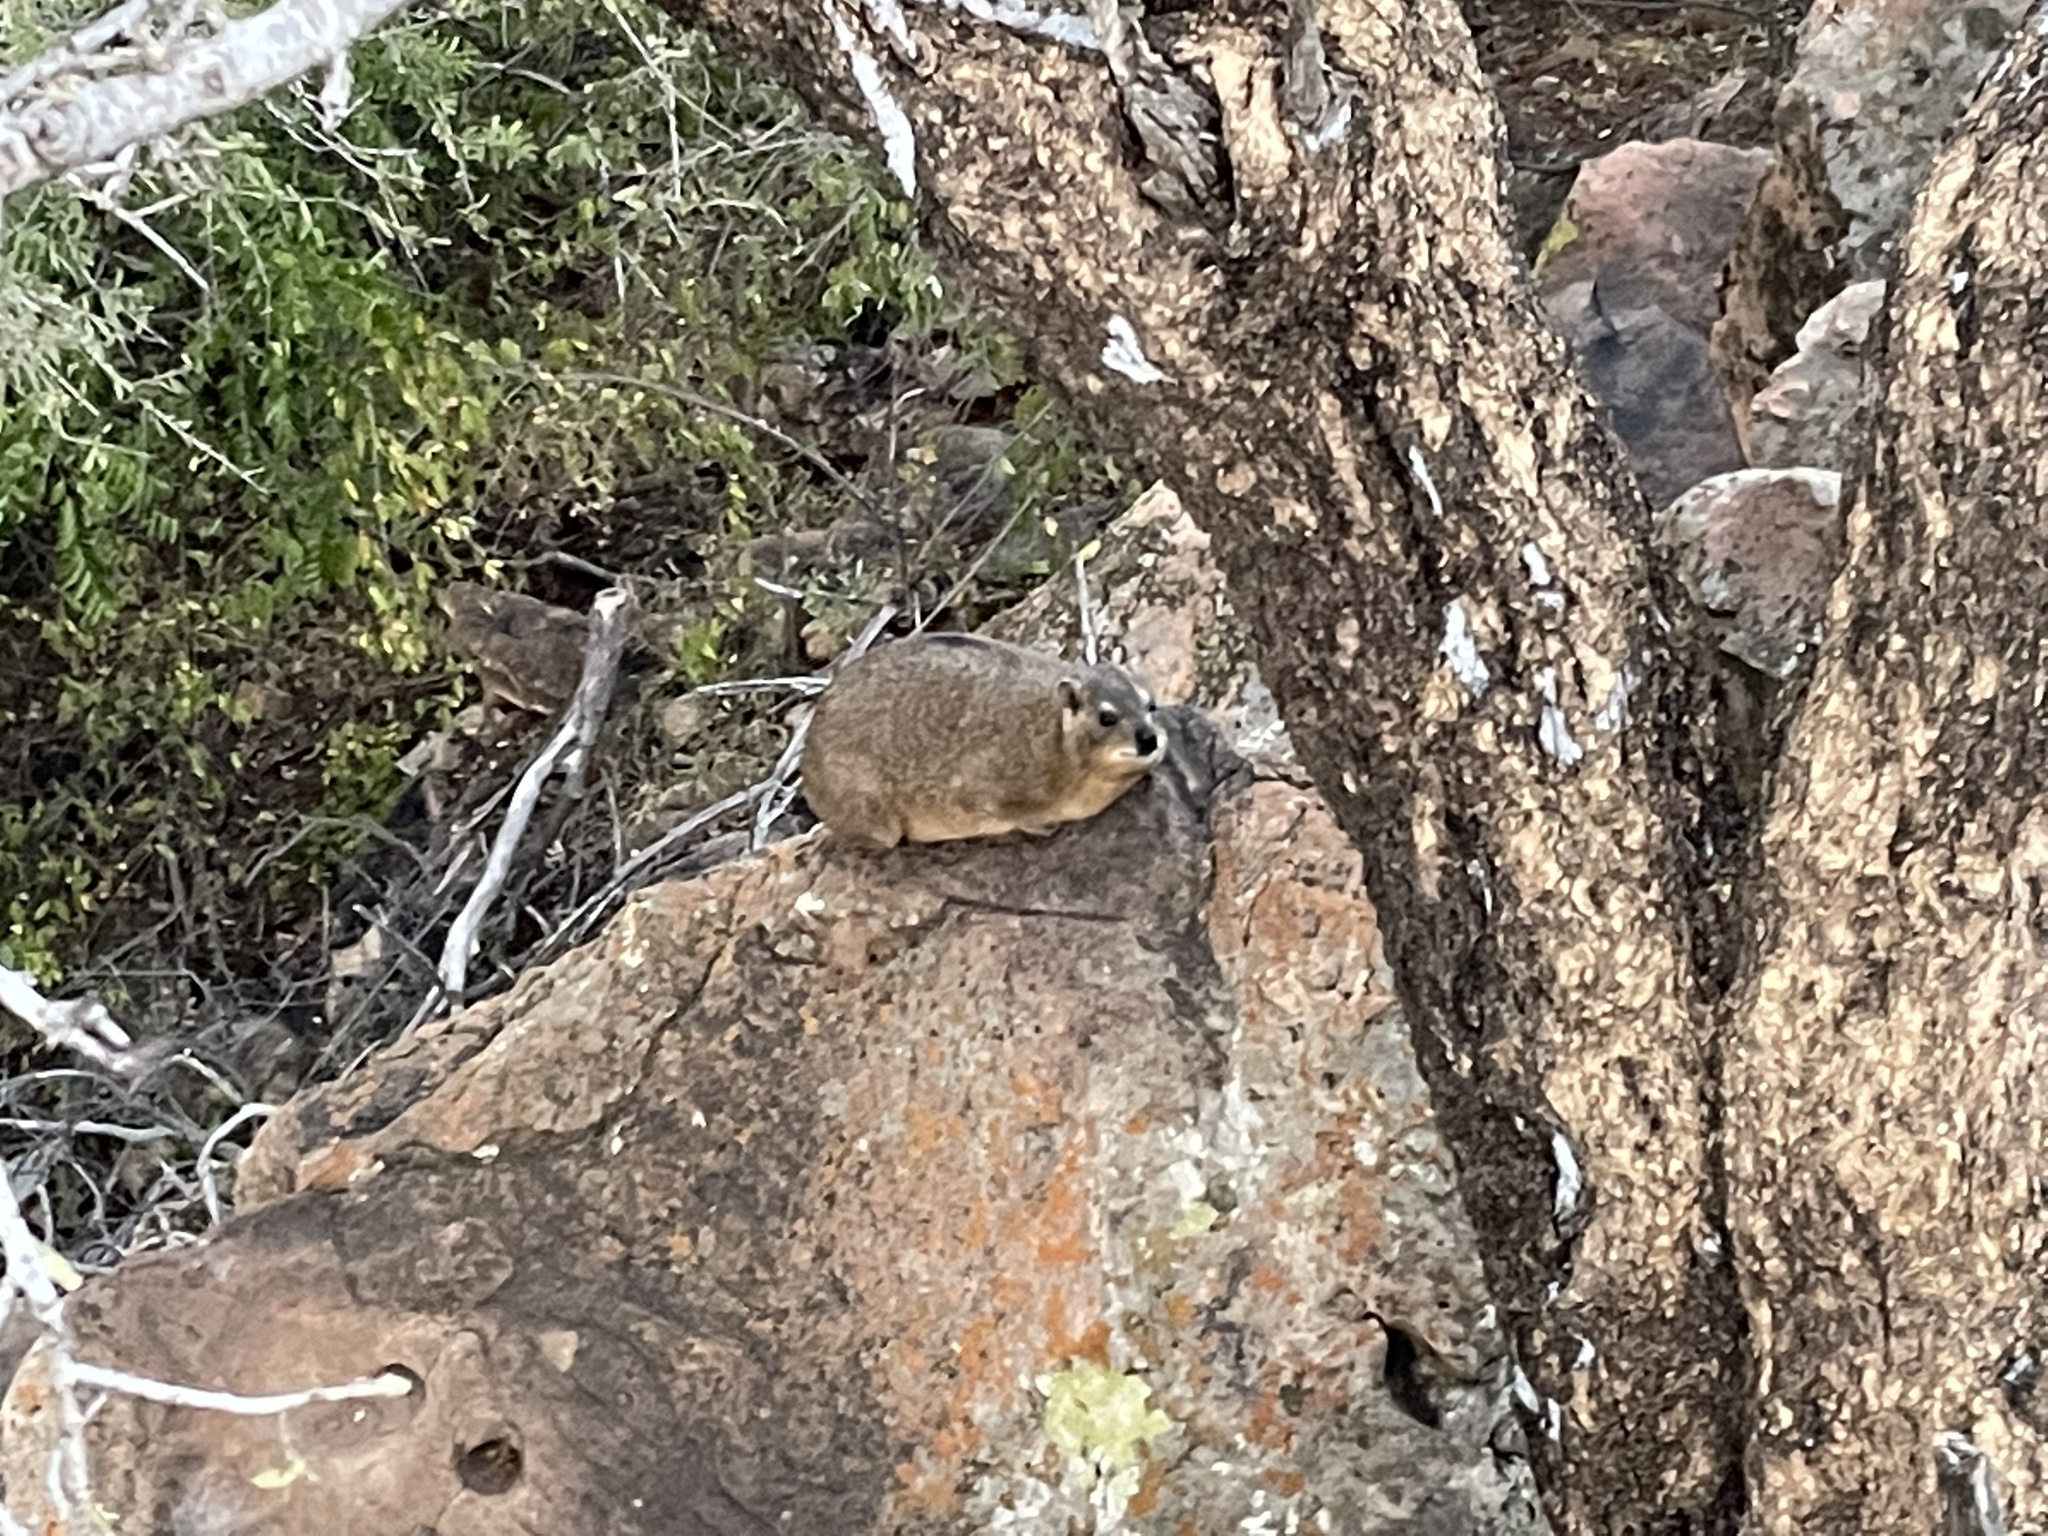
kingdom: Animalia
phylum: Chordata
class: Mammalia
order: Hyracoidea
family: Procaviidae
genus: Procavia
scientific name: Procavia capensis
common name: Rock hyrax
